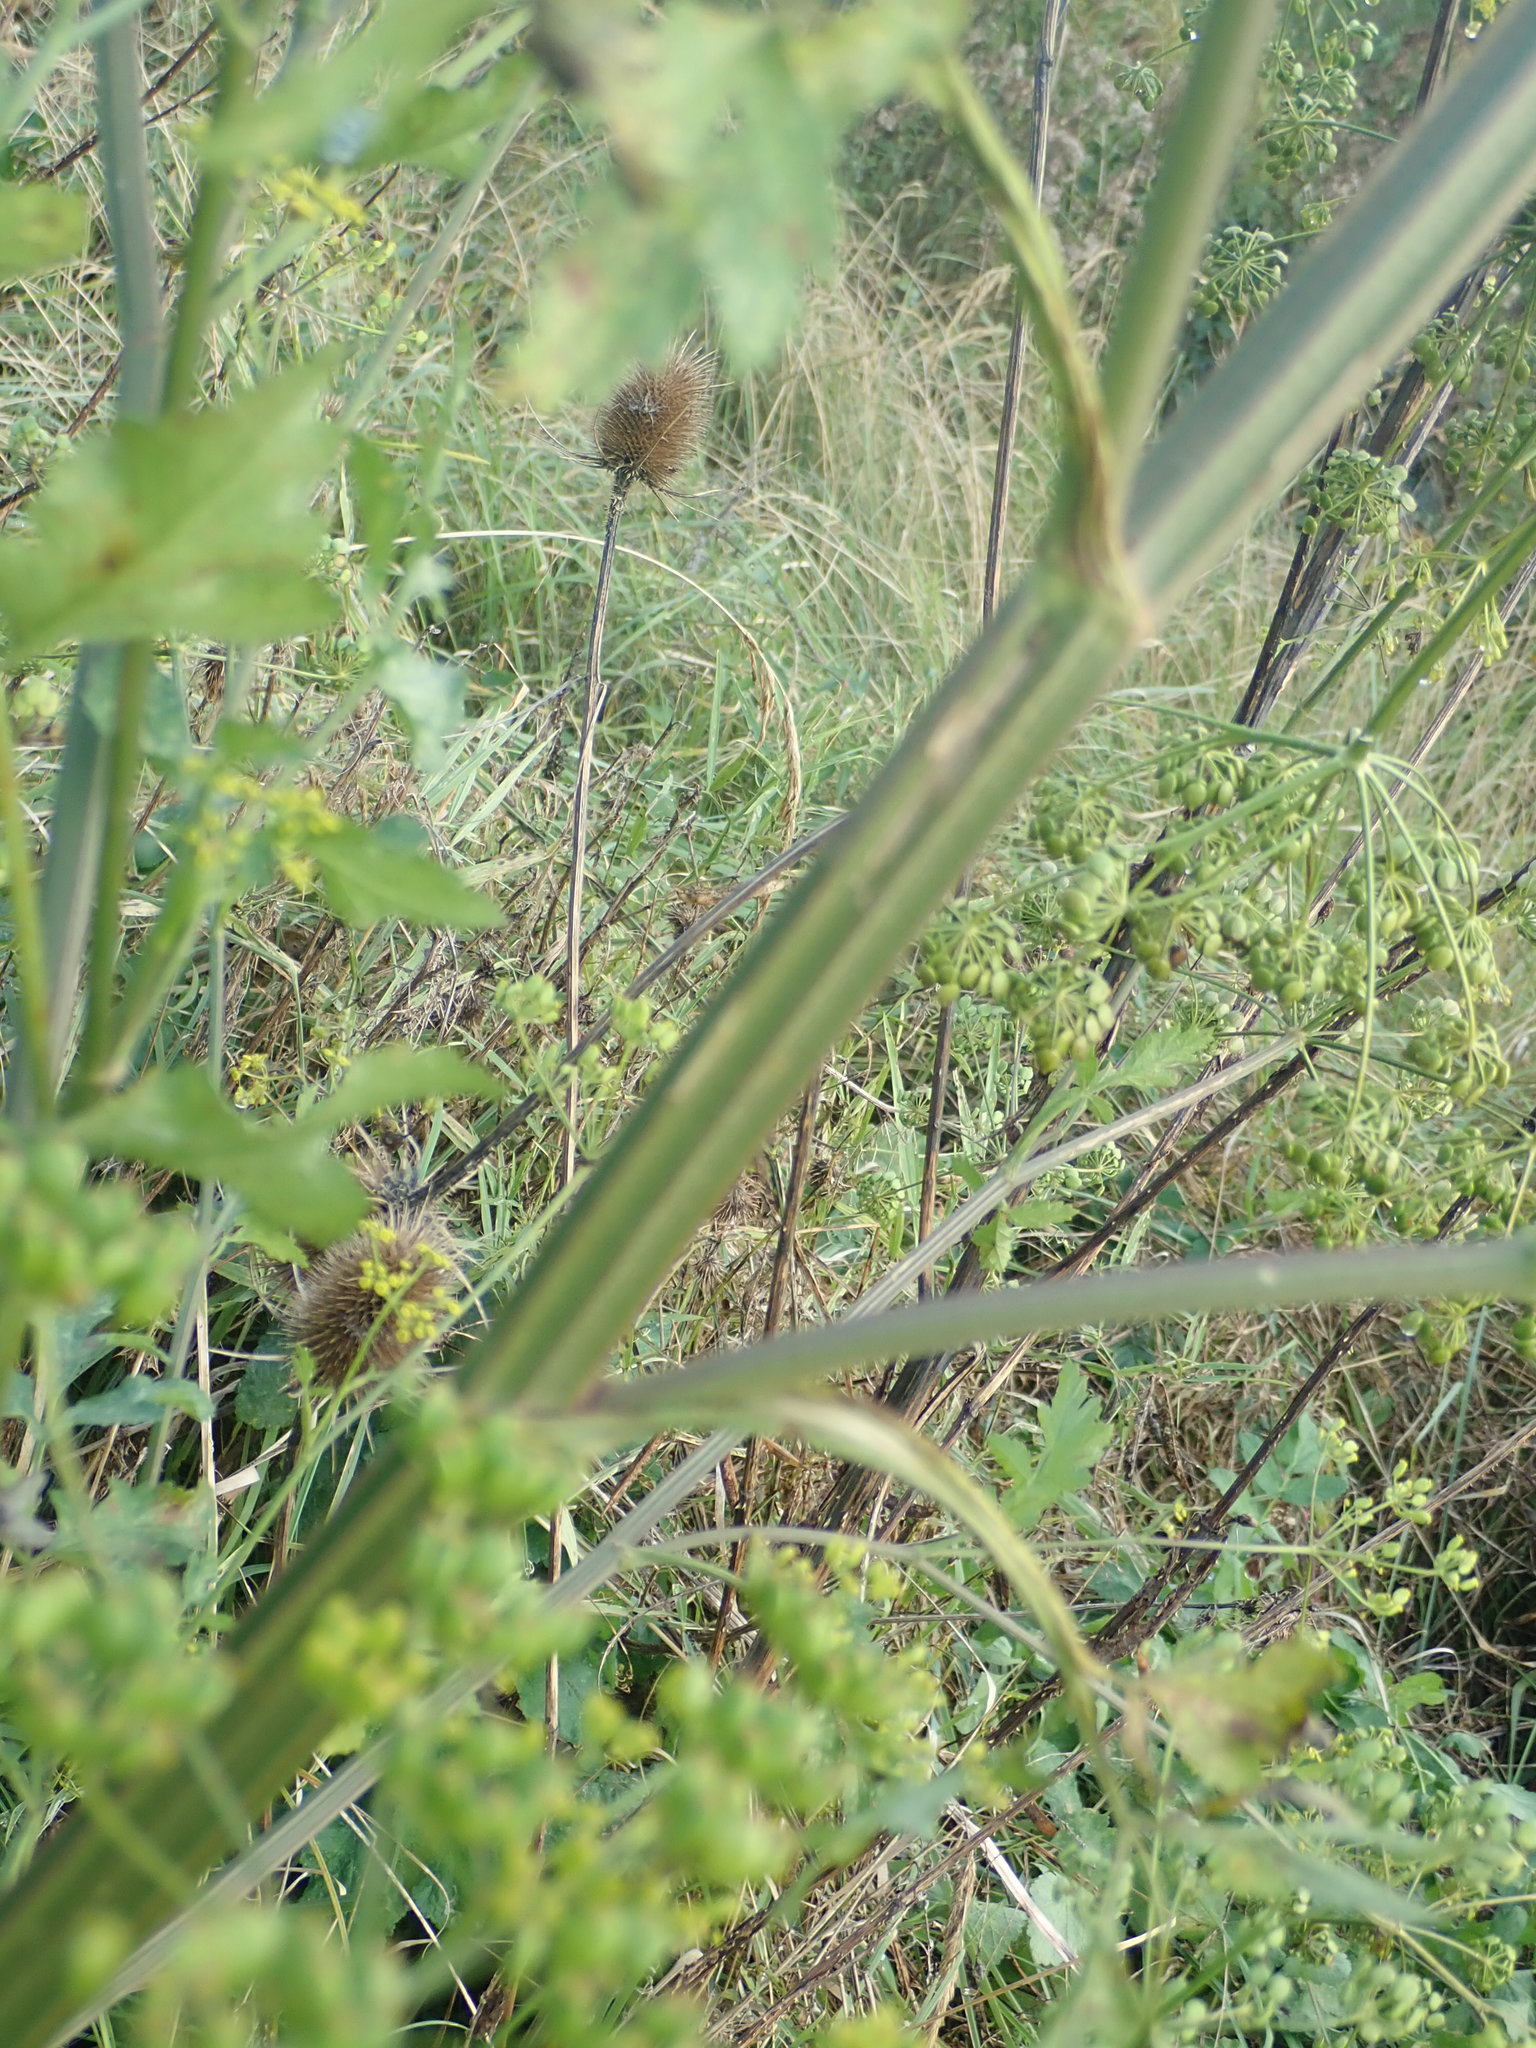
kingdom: Plantae
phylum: Tracheophyta
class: Magnoliopsida
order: Apiales
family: Apiaceae
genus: Pastinaca
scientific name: Pastinaca sativa
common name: Wild parsnip
